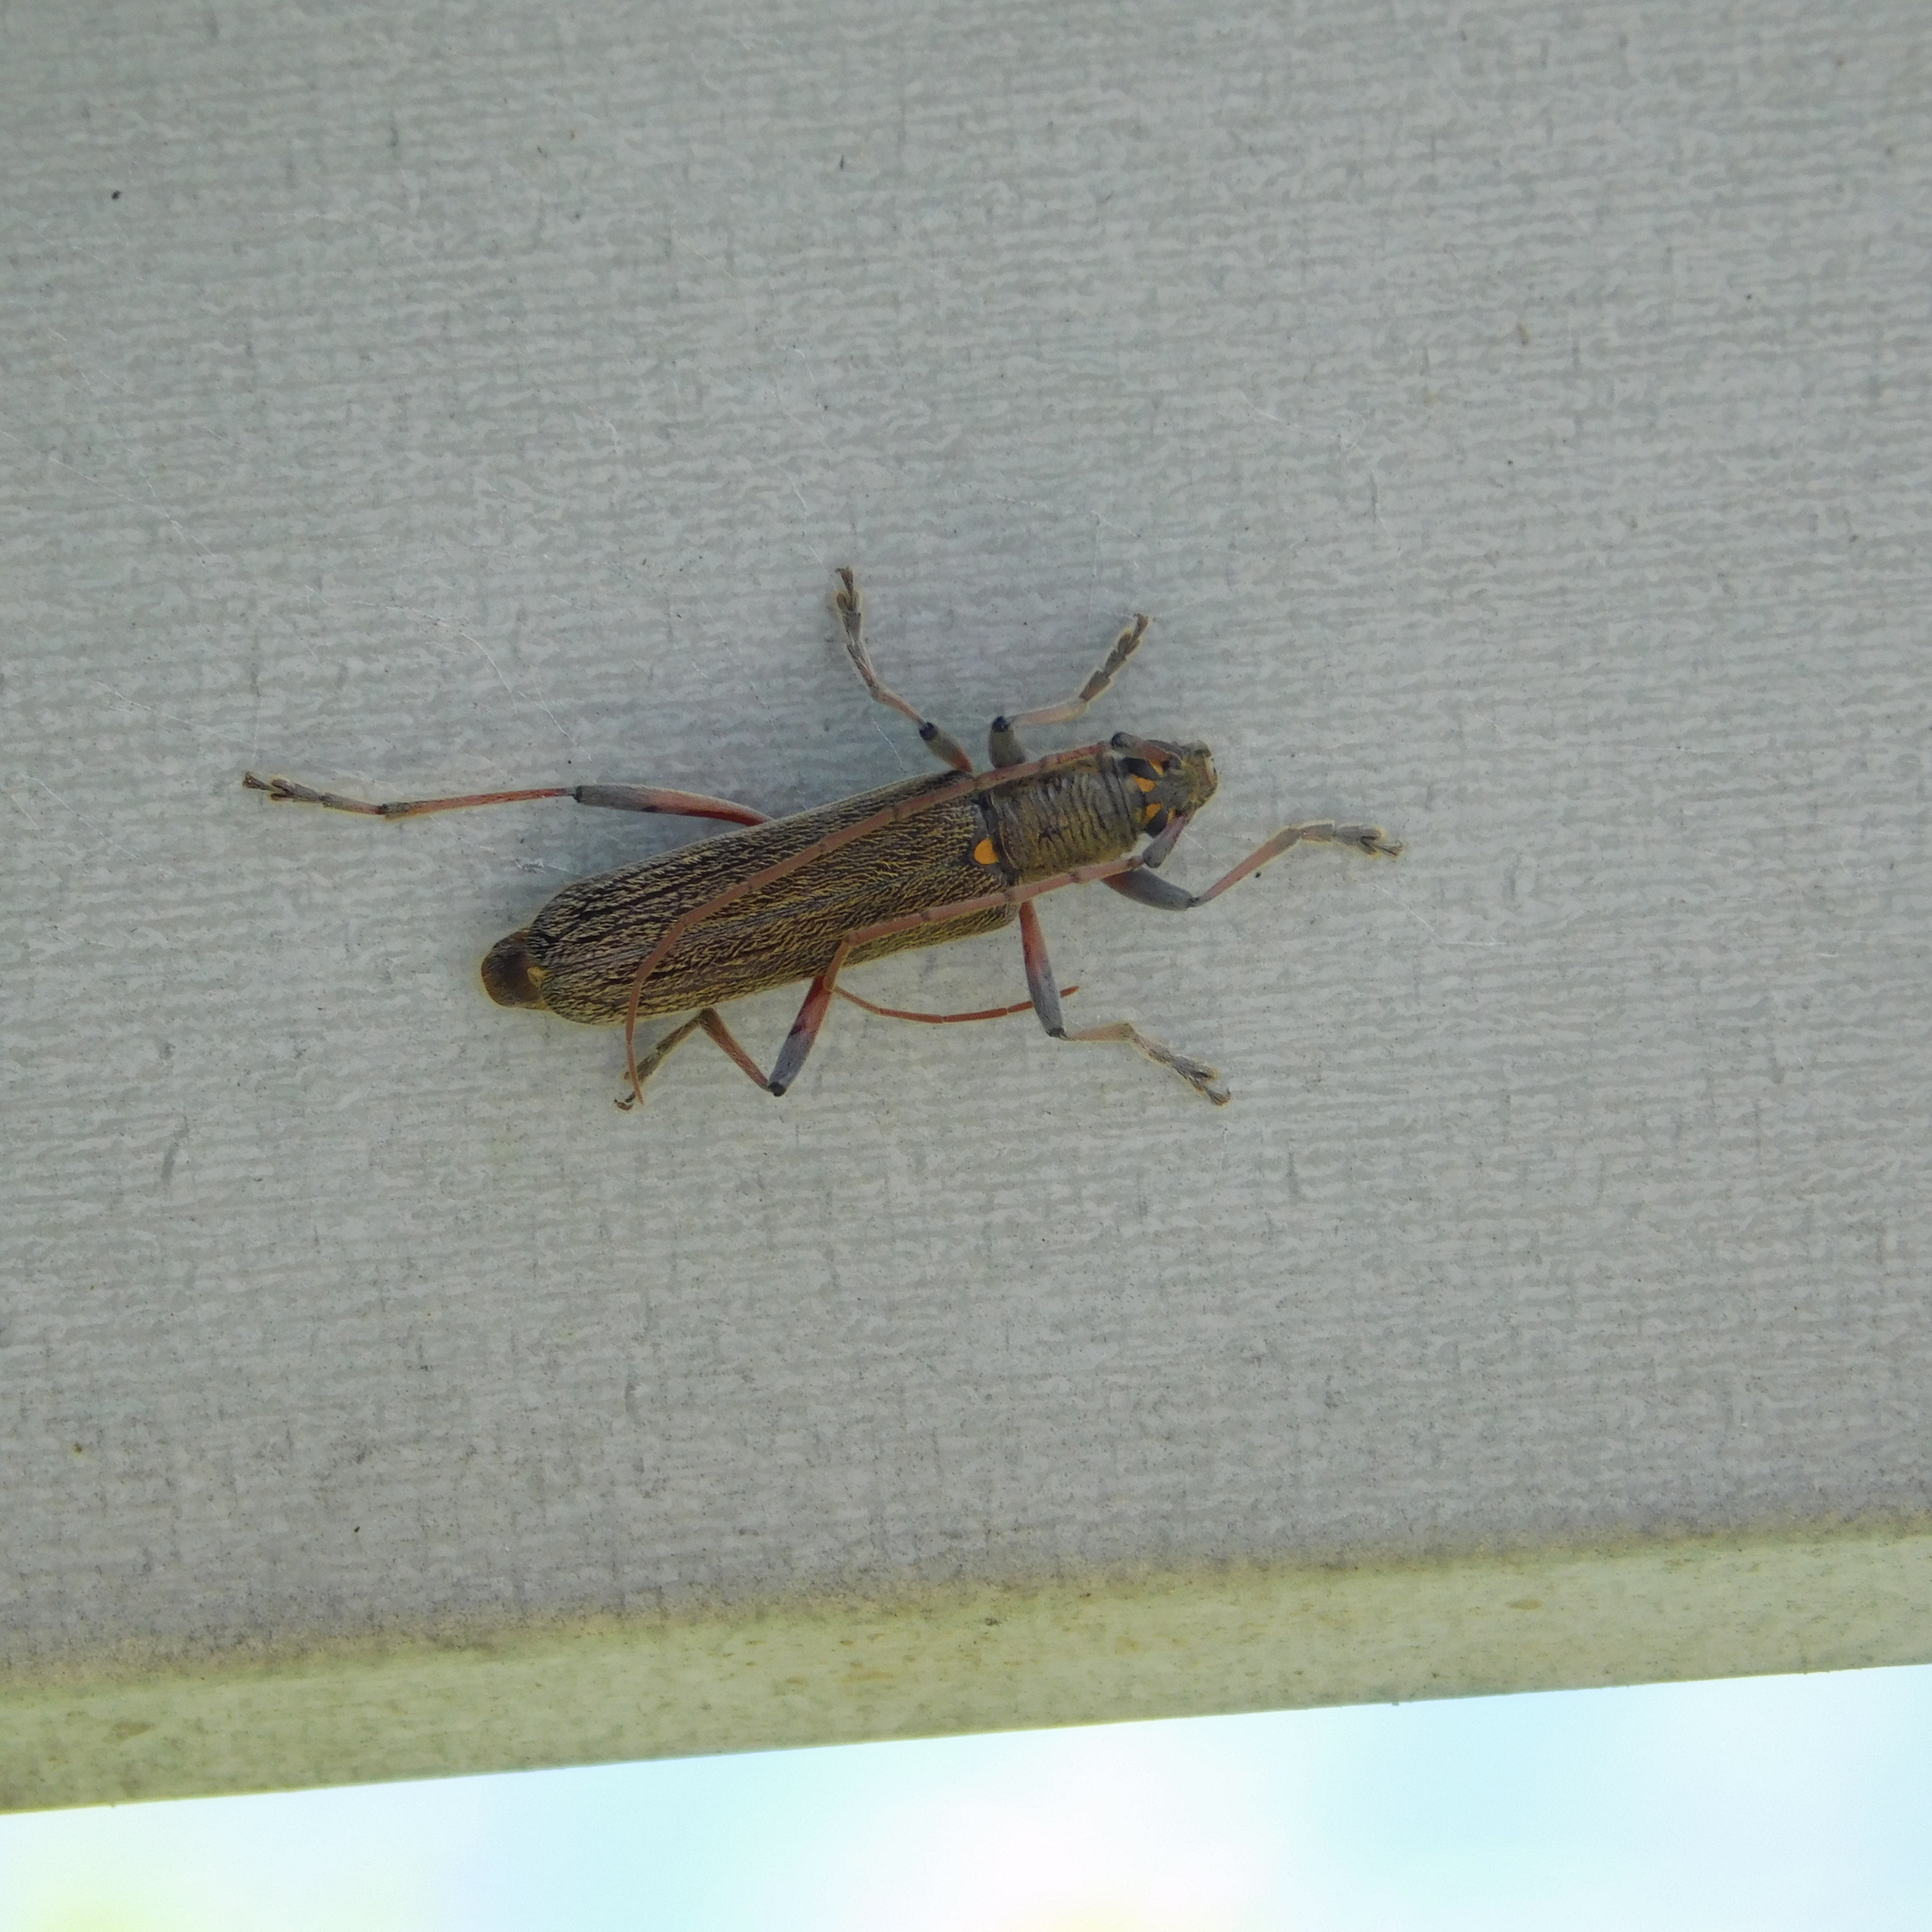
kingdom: Animalia
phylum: Arthropoda
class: Insecta
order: Coleoptera
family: Cerambycidae
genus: Oemona
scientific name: Oemona hirta
